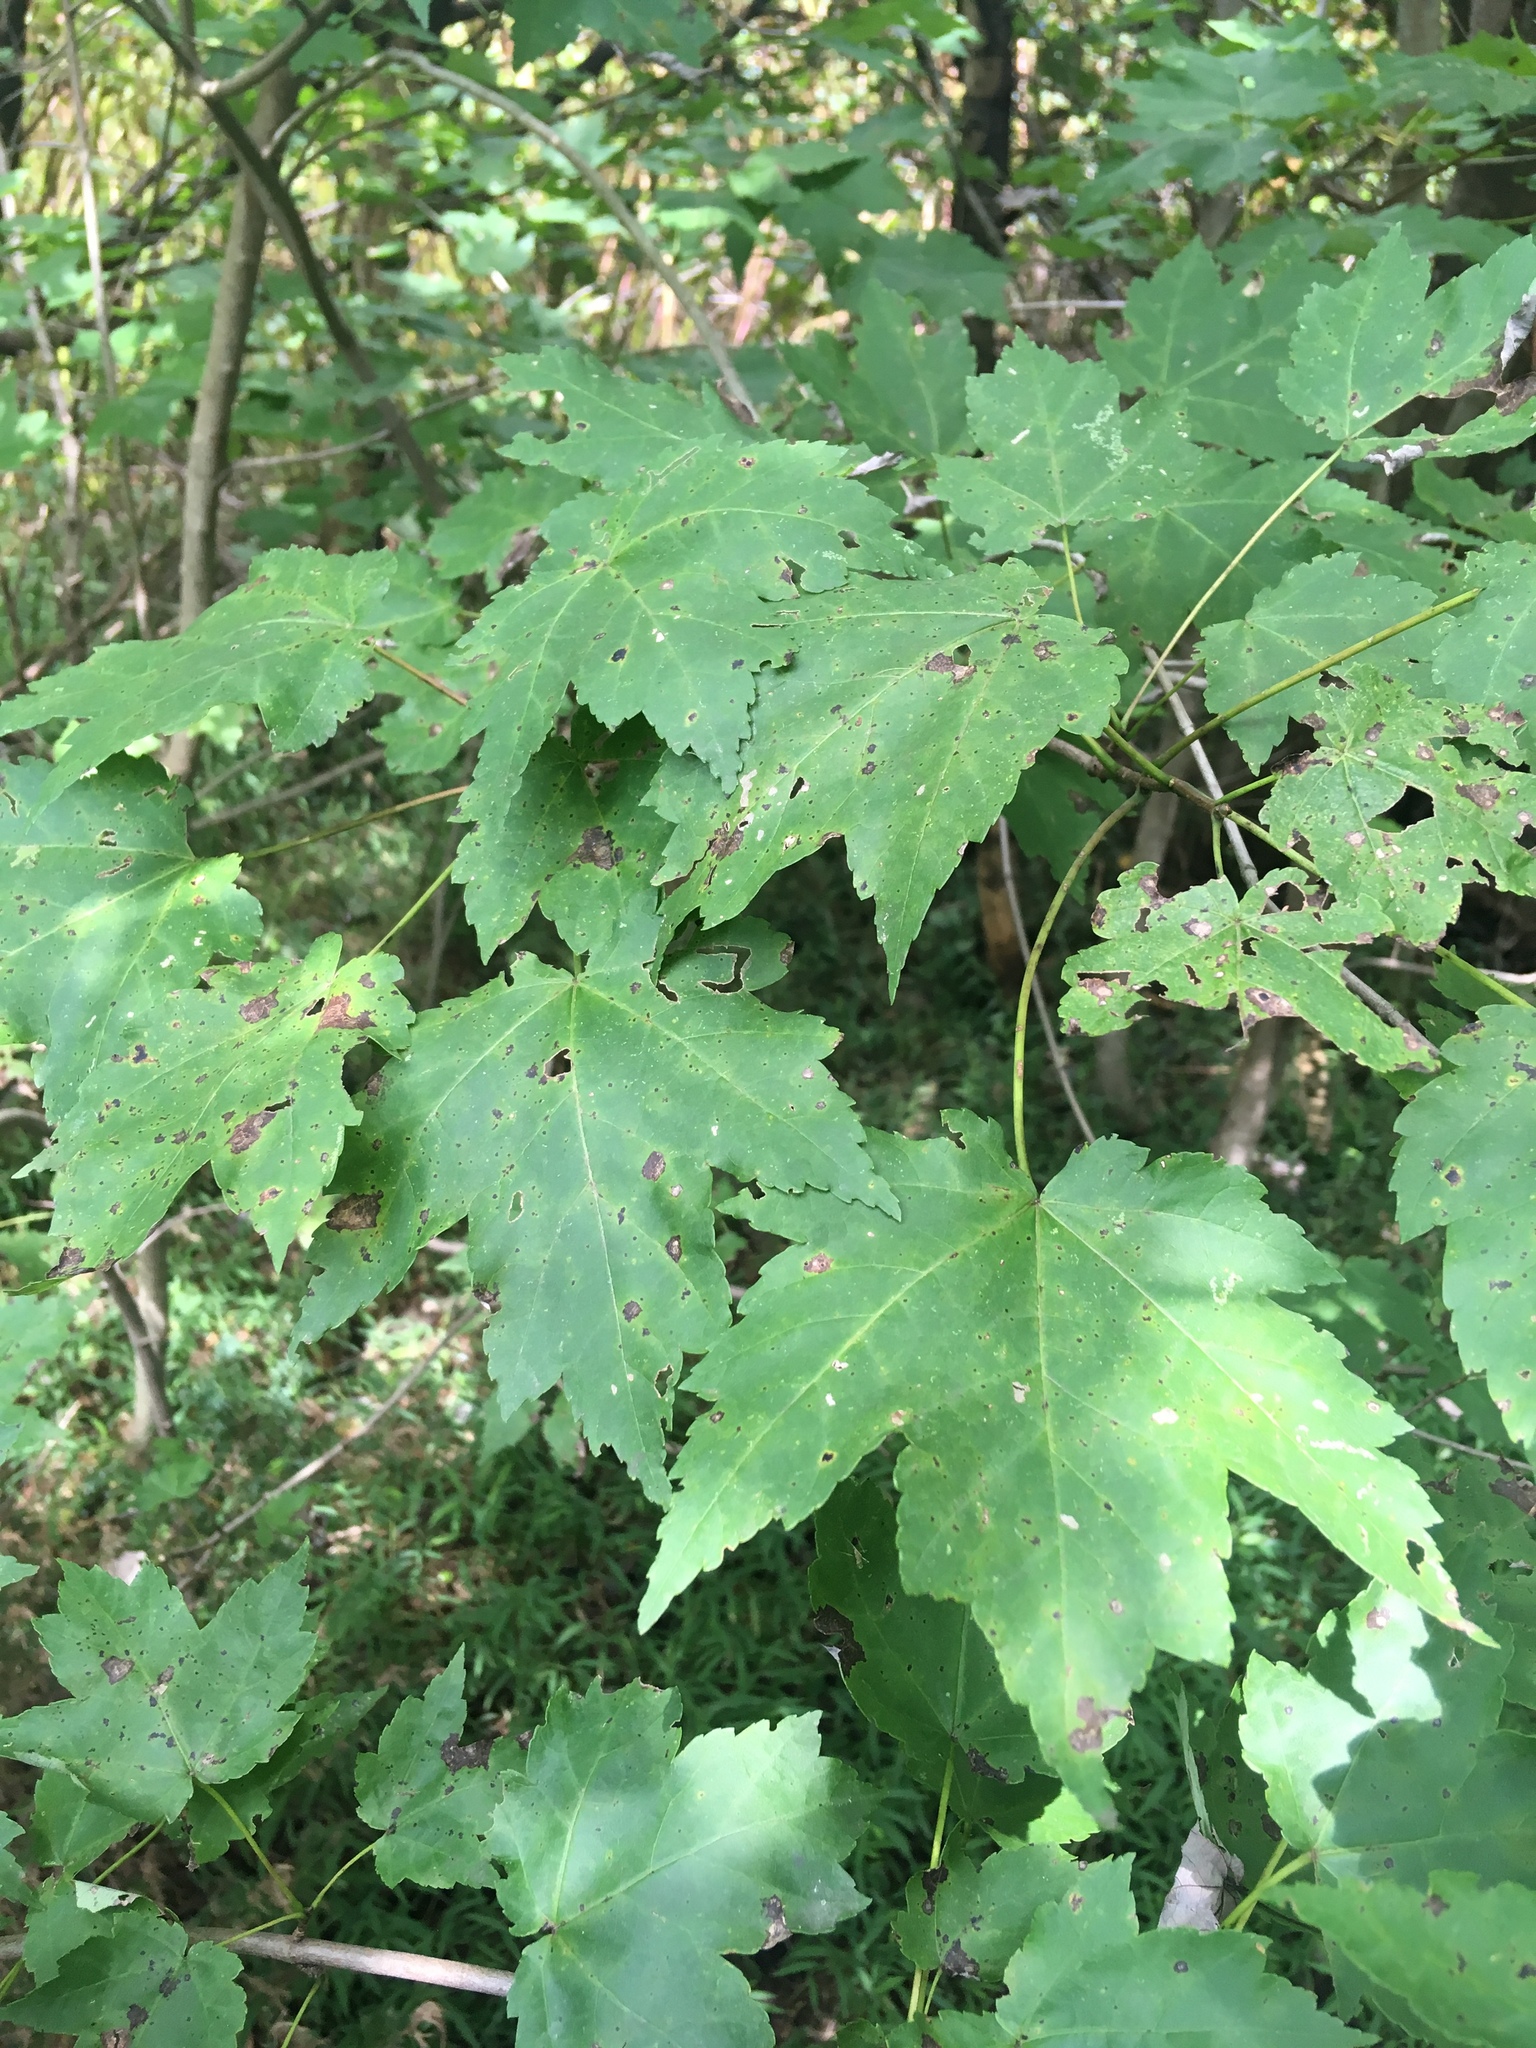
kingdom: Plantae
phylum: Tracheophyta
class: Magnoliopsida
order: Sapindales
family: Sapindaceae
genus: Acer
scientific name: Acer rubrum
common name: Red maple
